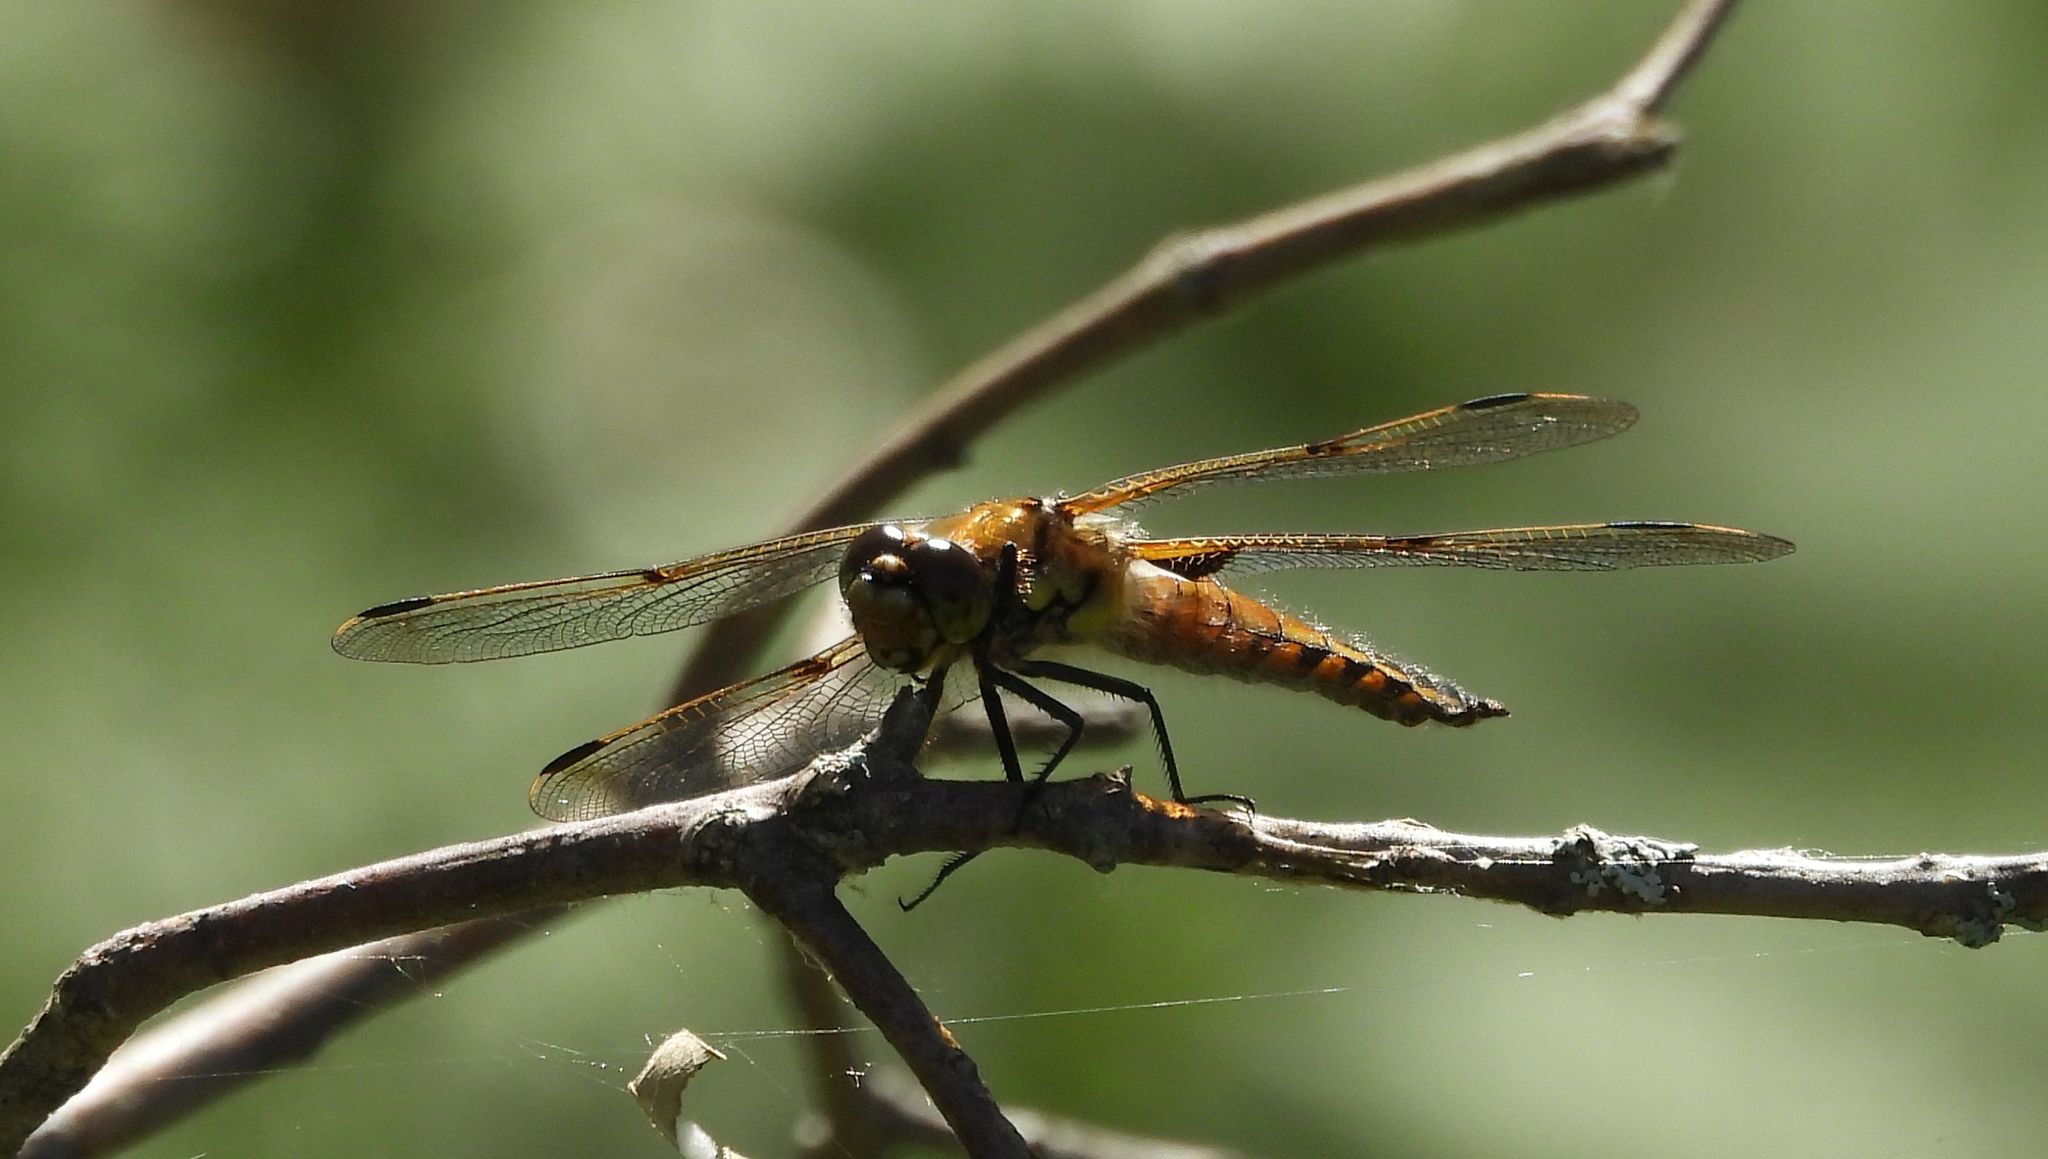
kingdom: Animalia
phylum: Arthropoda
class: Insecta
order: Odonata
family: Libellulidae
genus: Libellula
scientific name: Libellula quadrimaculata
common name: Four-spotted chaser
